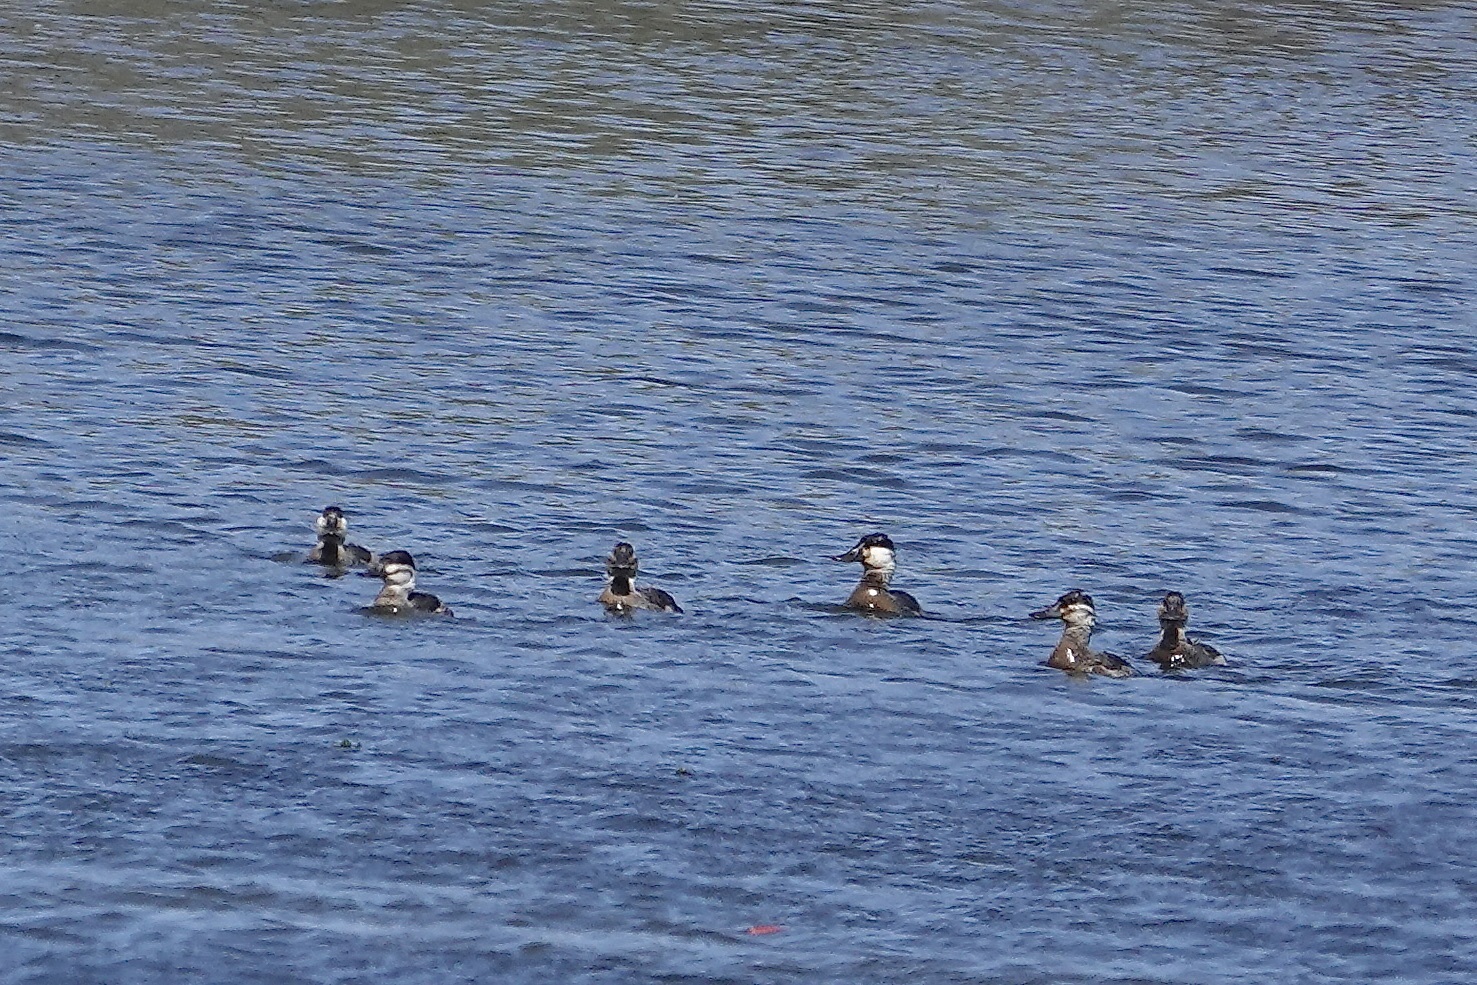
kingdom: Animalia
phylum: Chordata
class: Aves
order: Anseriformes
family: Anatidae
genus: Oxyura
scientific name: Oxyura jamaicensis
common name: Ruddy duck
